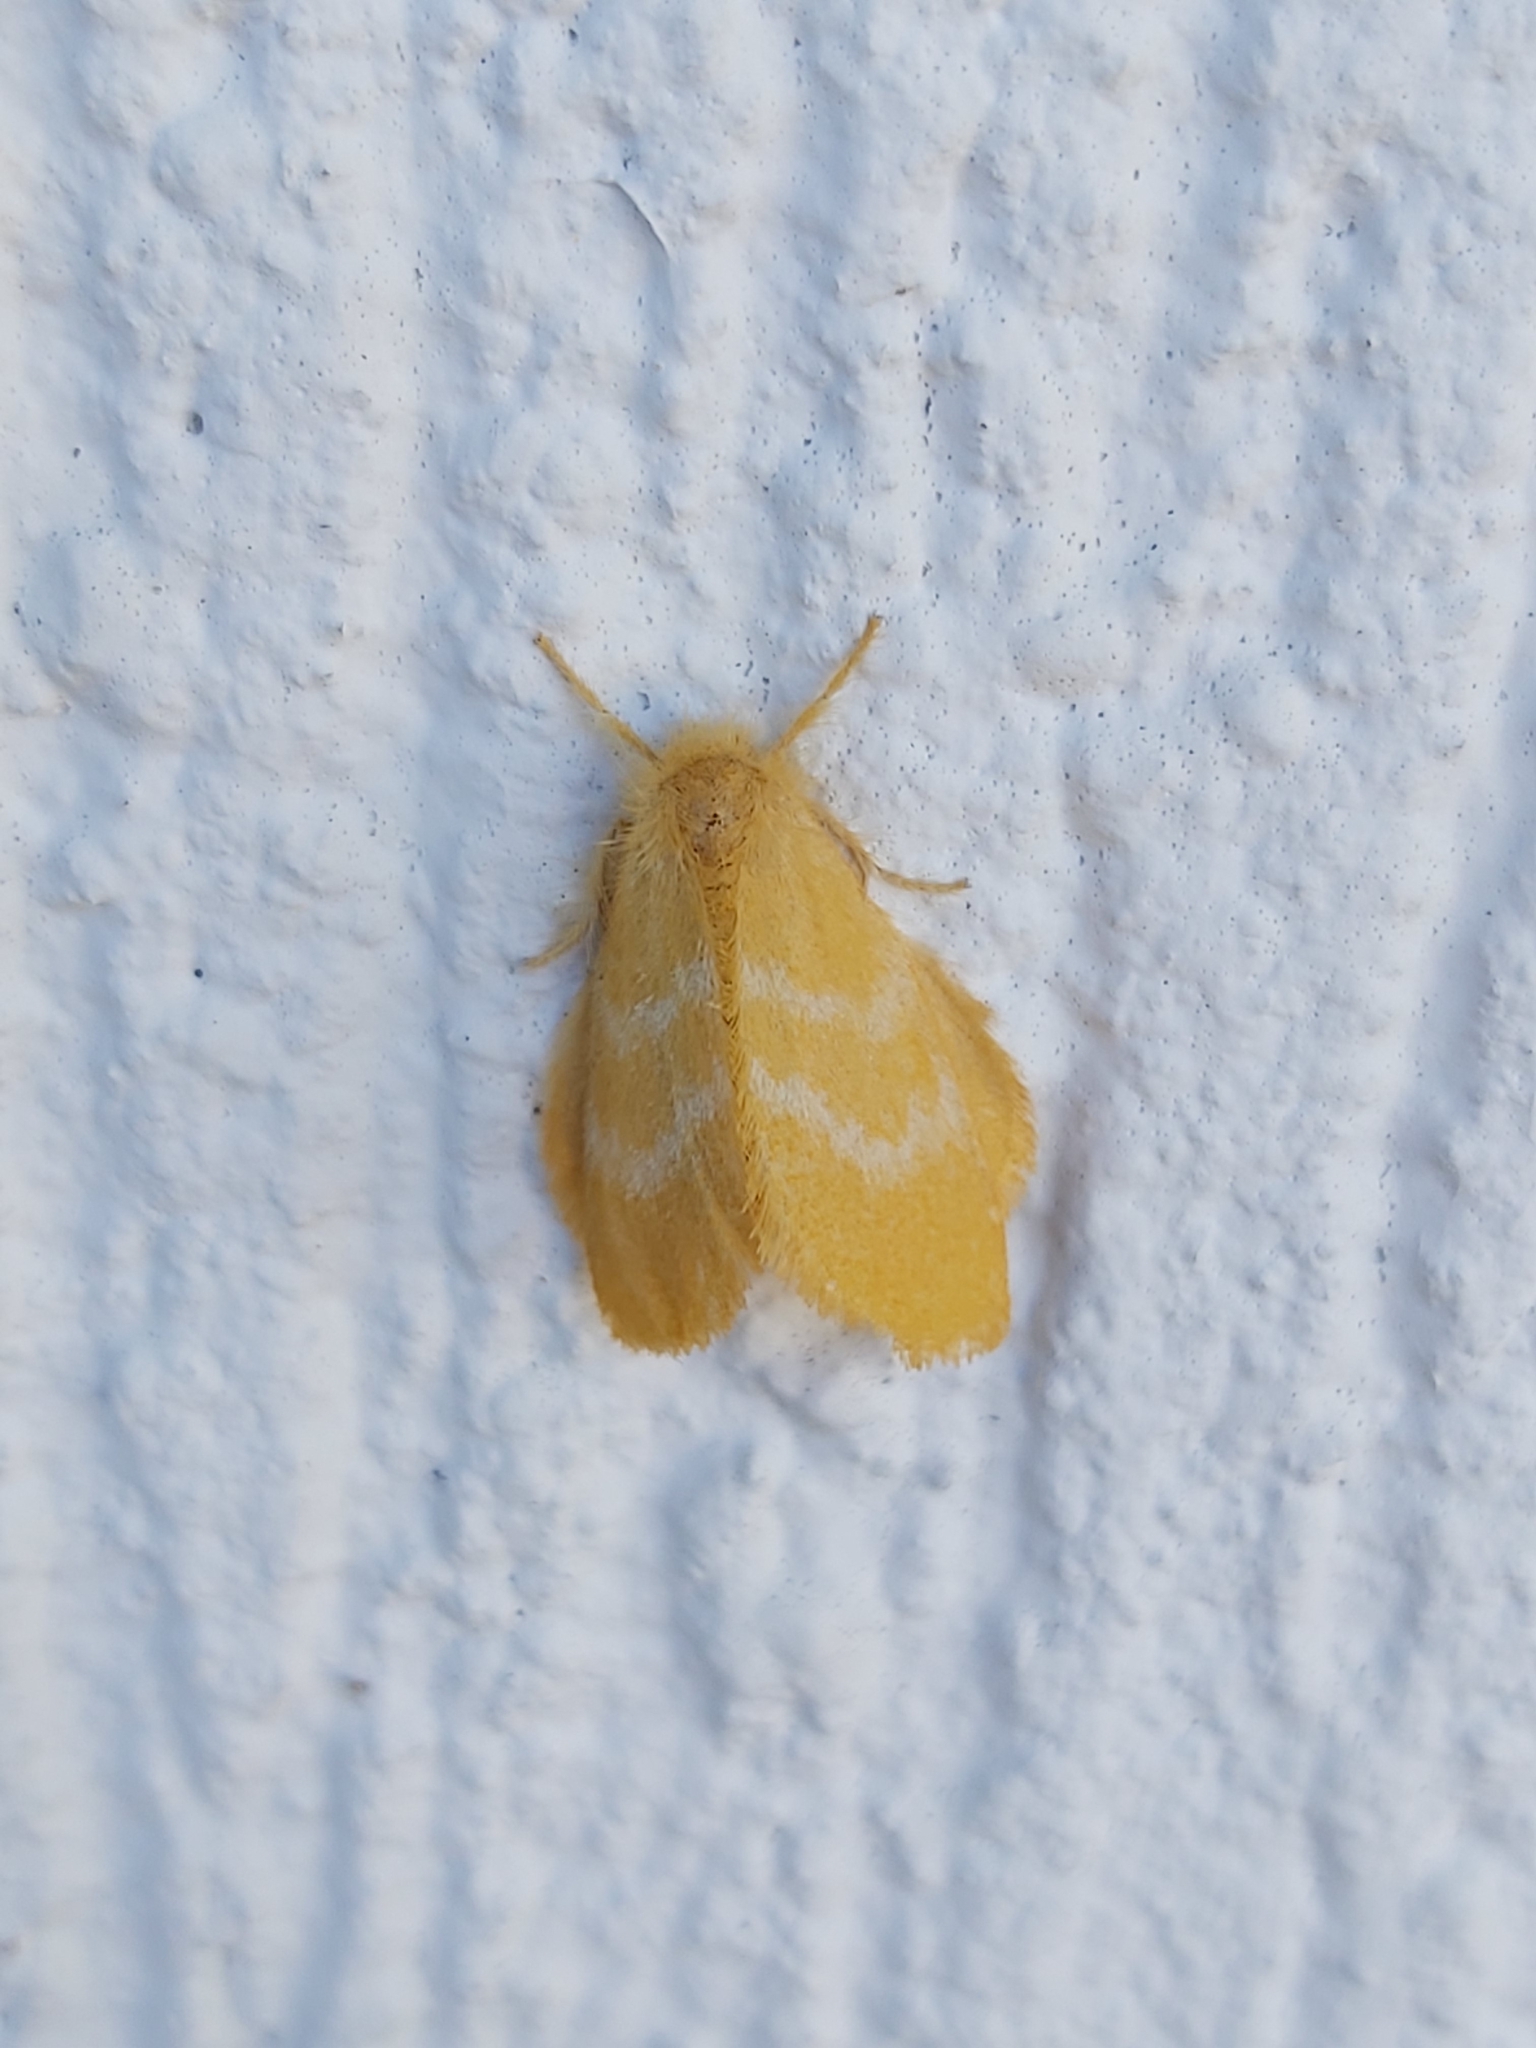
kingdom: Animalia
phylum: Arthropoda
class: Insecta
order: Lepidoptera
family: Erebidae
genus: Euproctis
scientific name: Euproctis lutea
